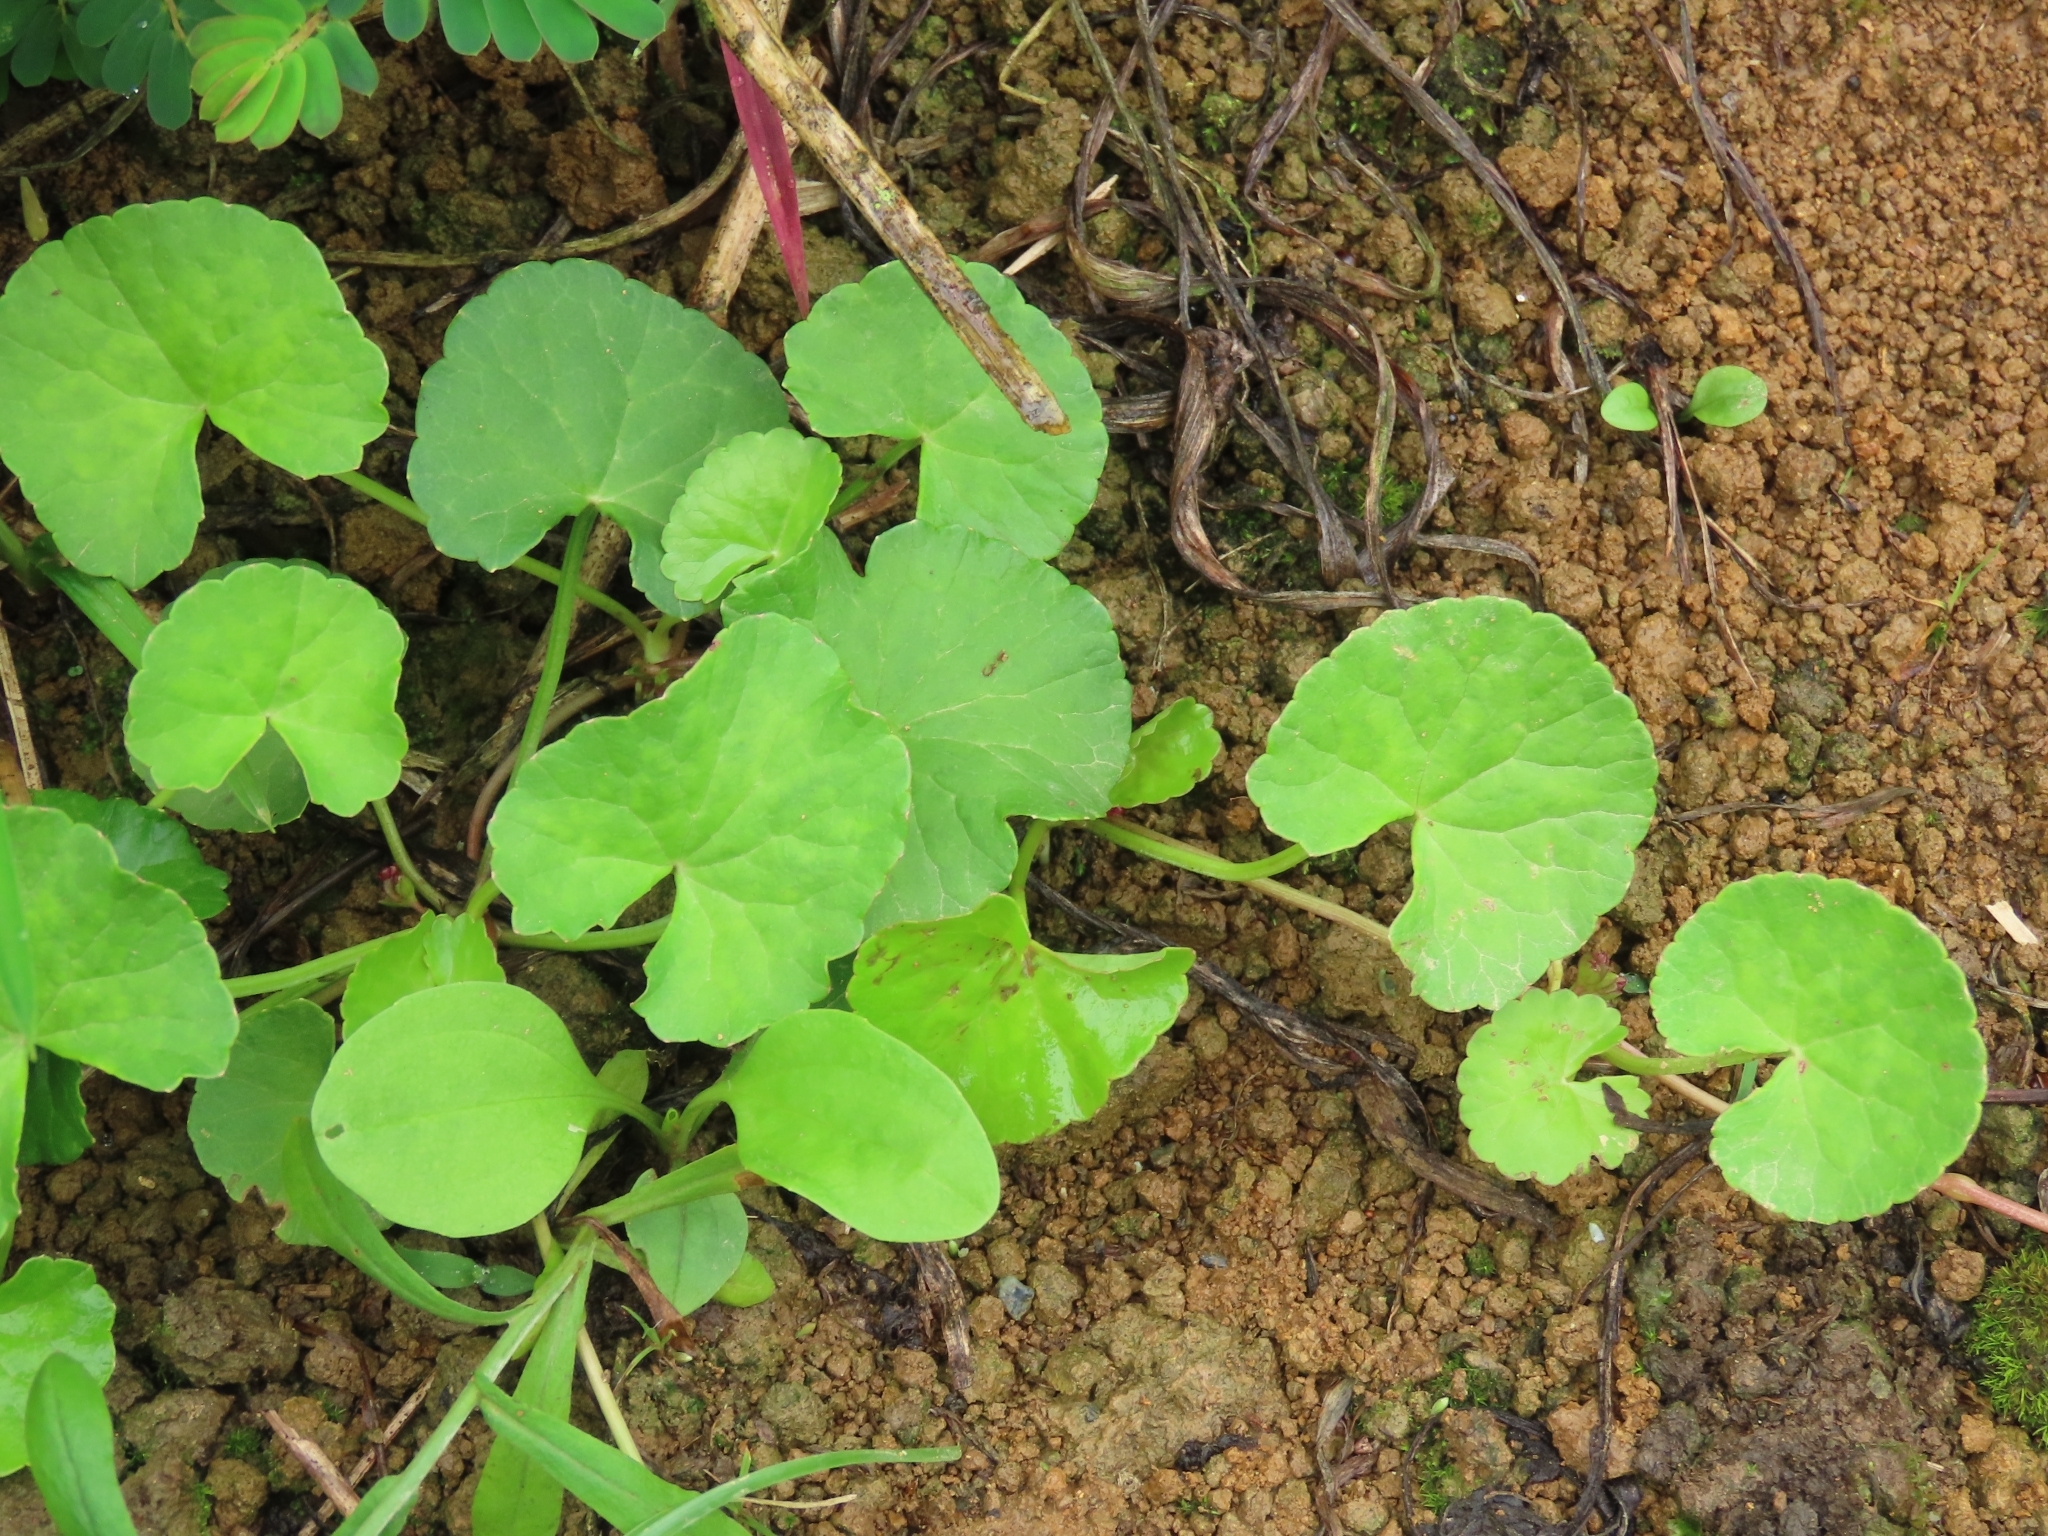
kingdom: Plantae
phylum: Tracheophyta
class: Magnoliopsida
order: Apiales
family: Apiaceae
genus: Centella
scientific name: Centella asiatica
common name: Spadeleaf
